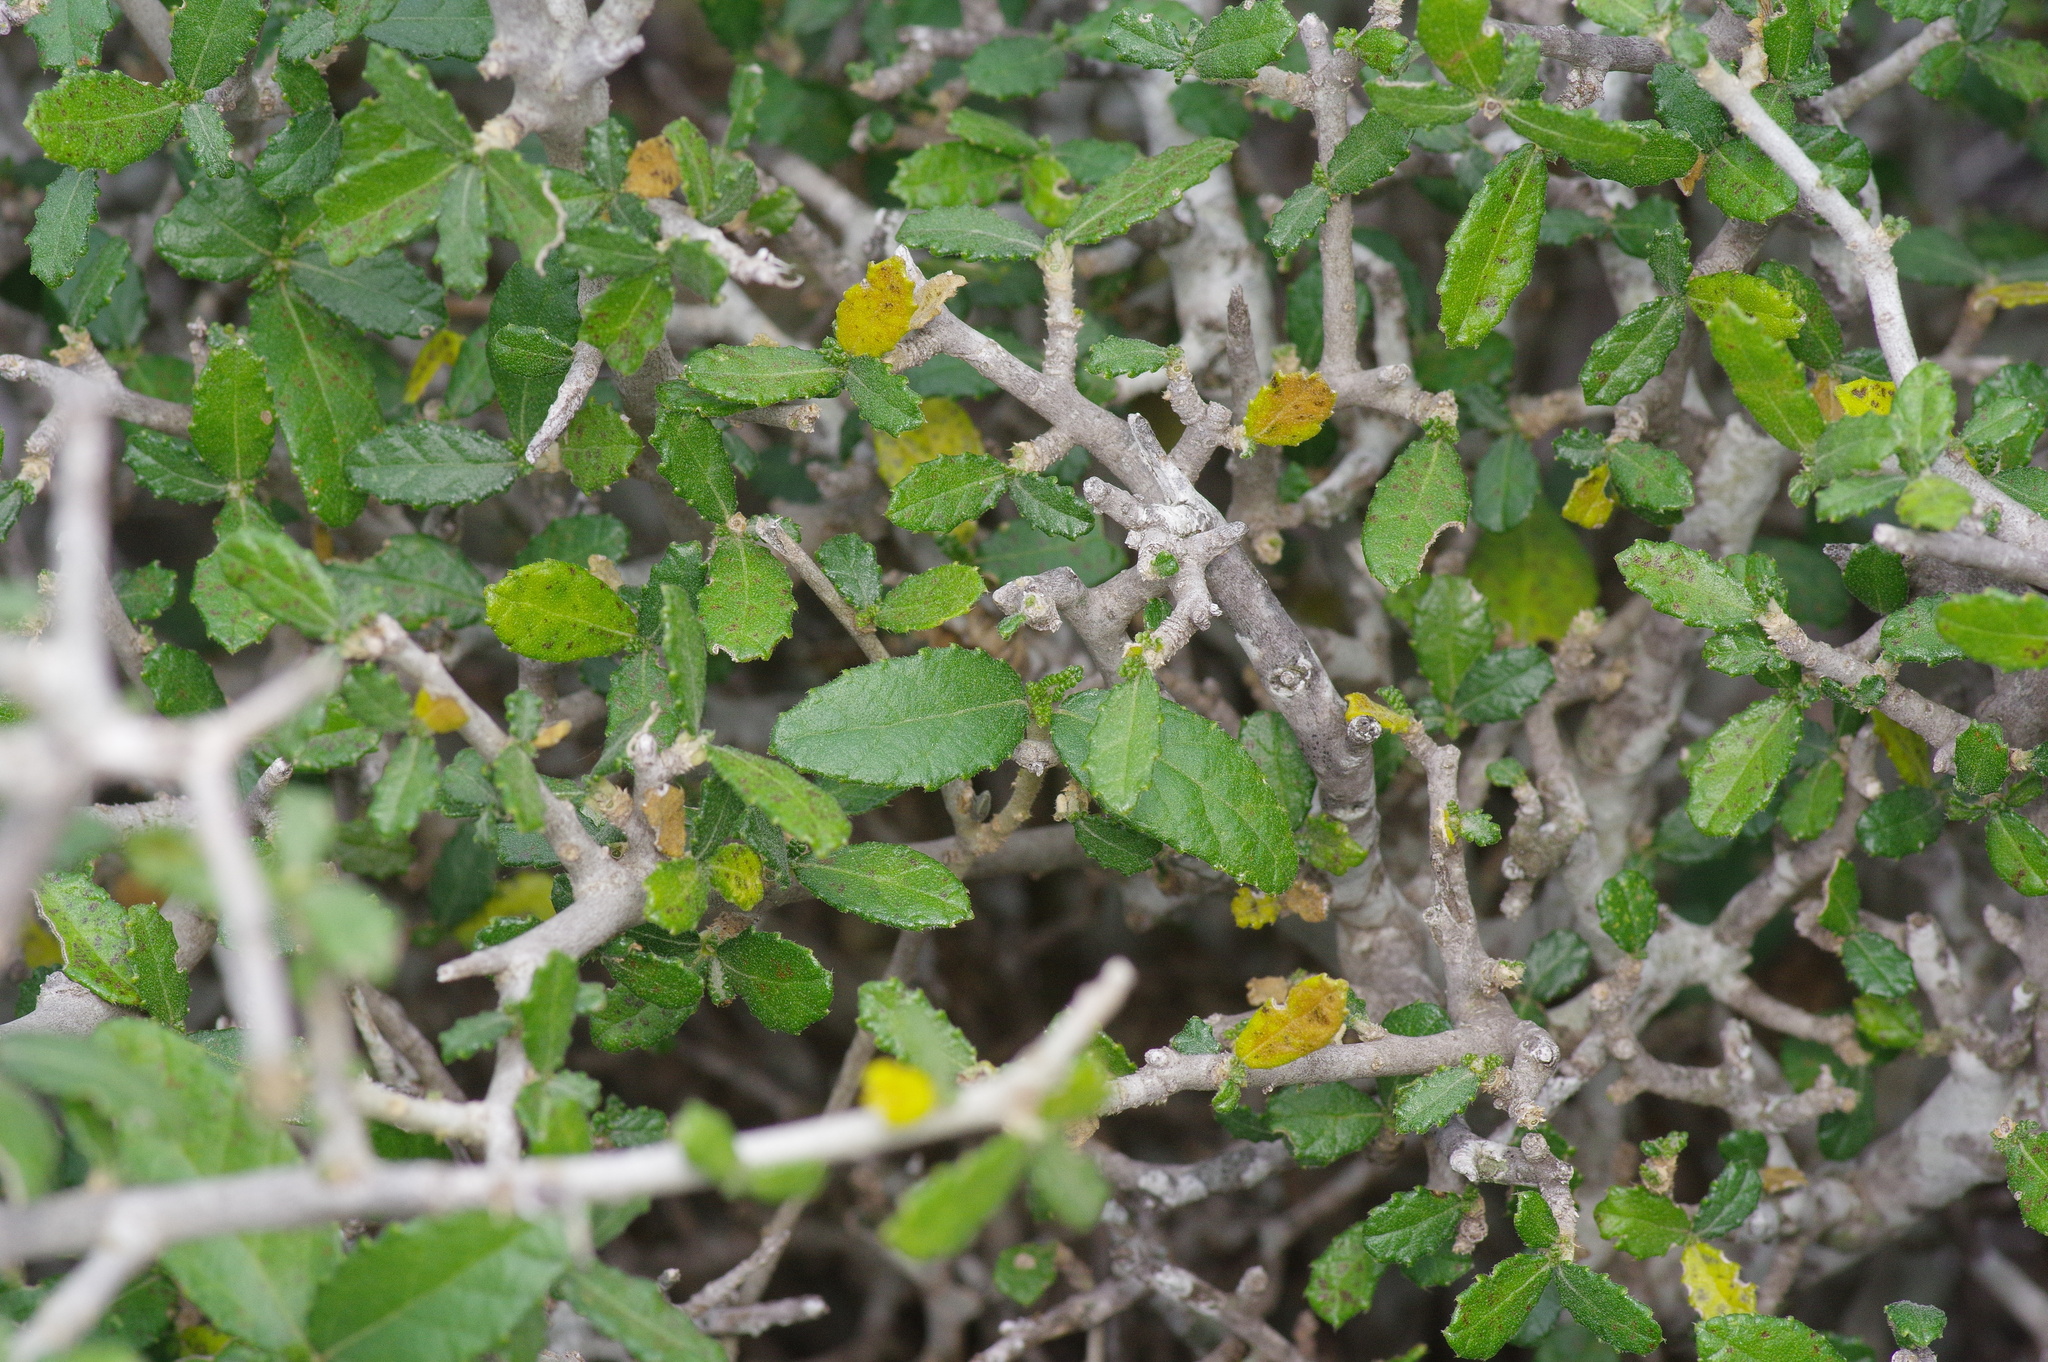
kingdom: Plantae
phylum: Tracheophyta
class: Magnoliopsida
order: Malpighiales
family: Euphorbiaceae
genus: Bernardia
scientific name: Bernardia myricifolia
